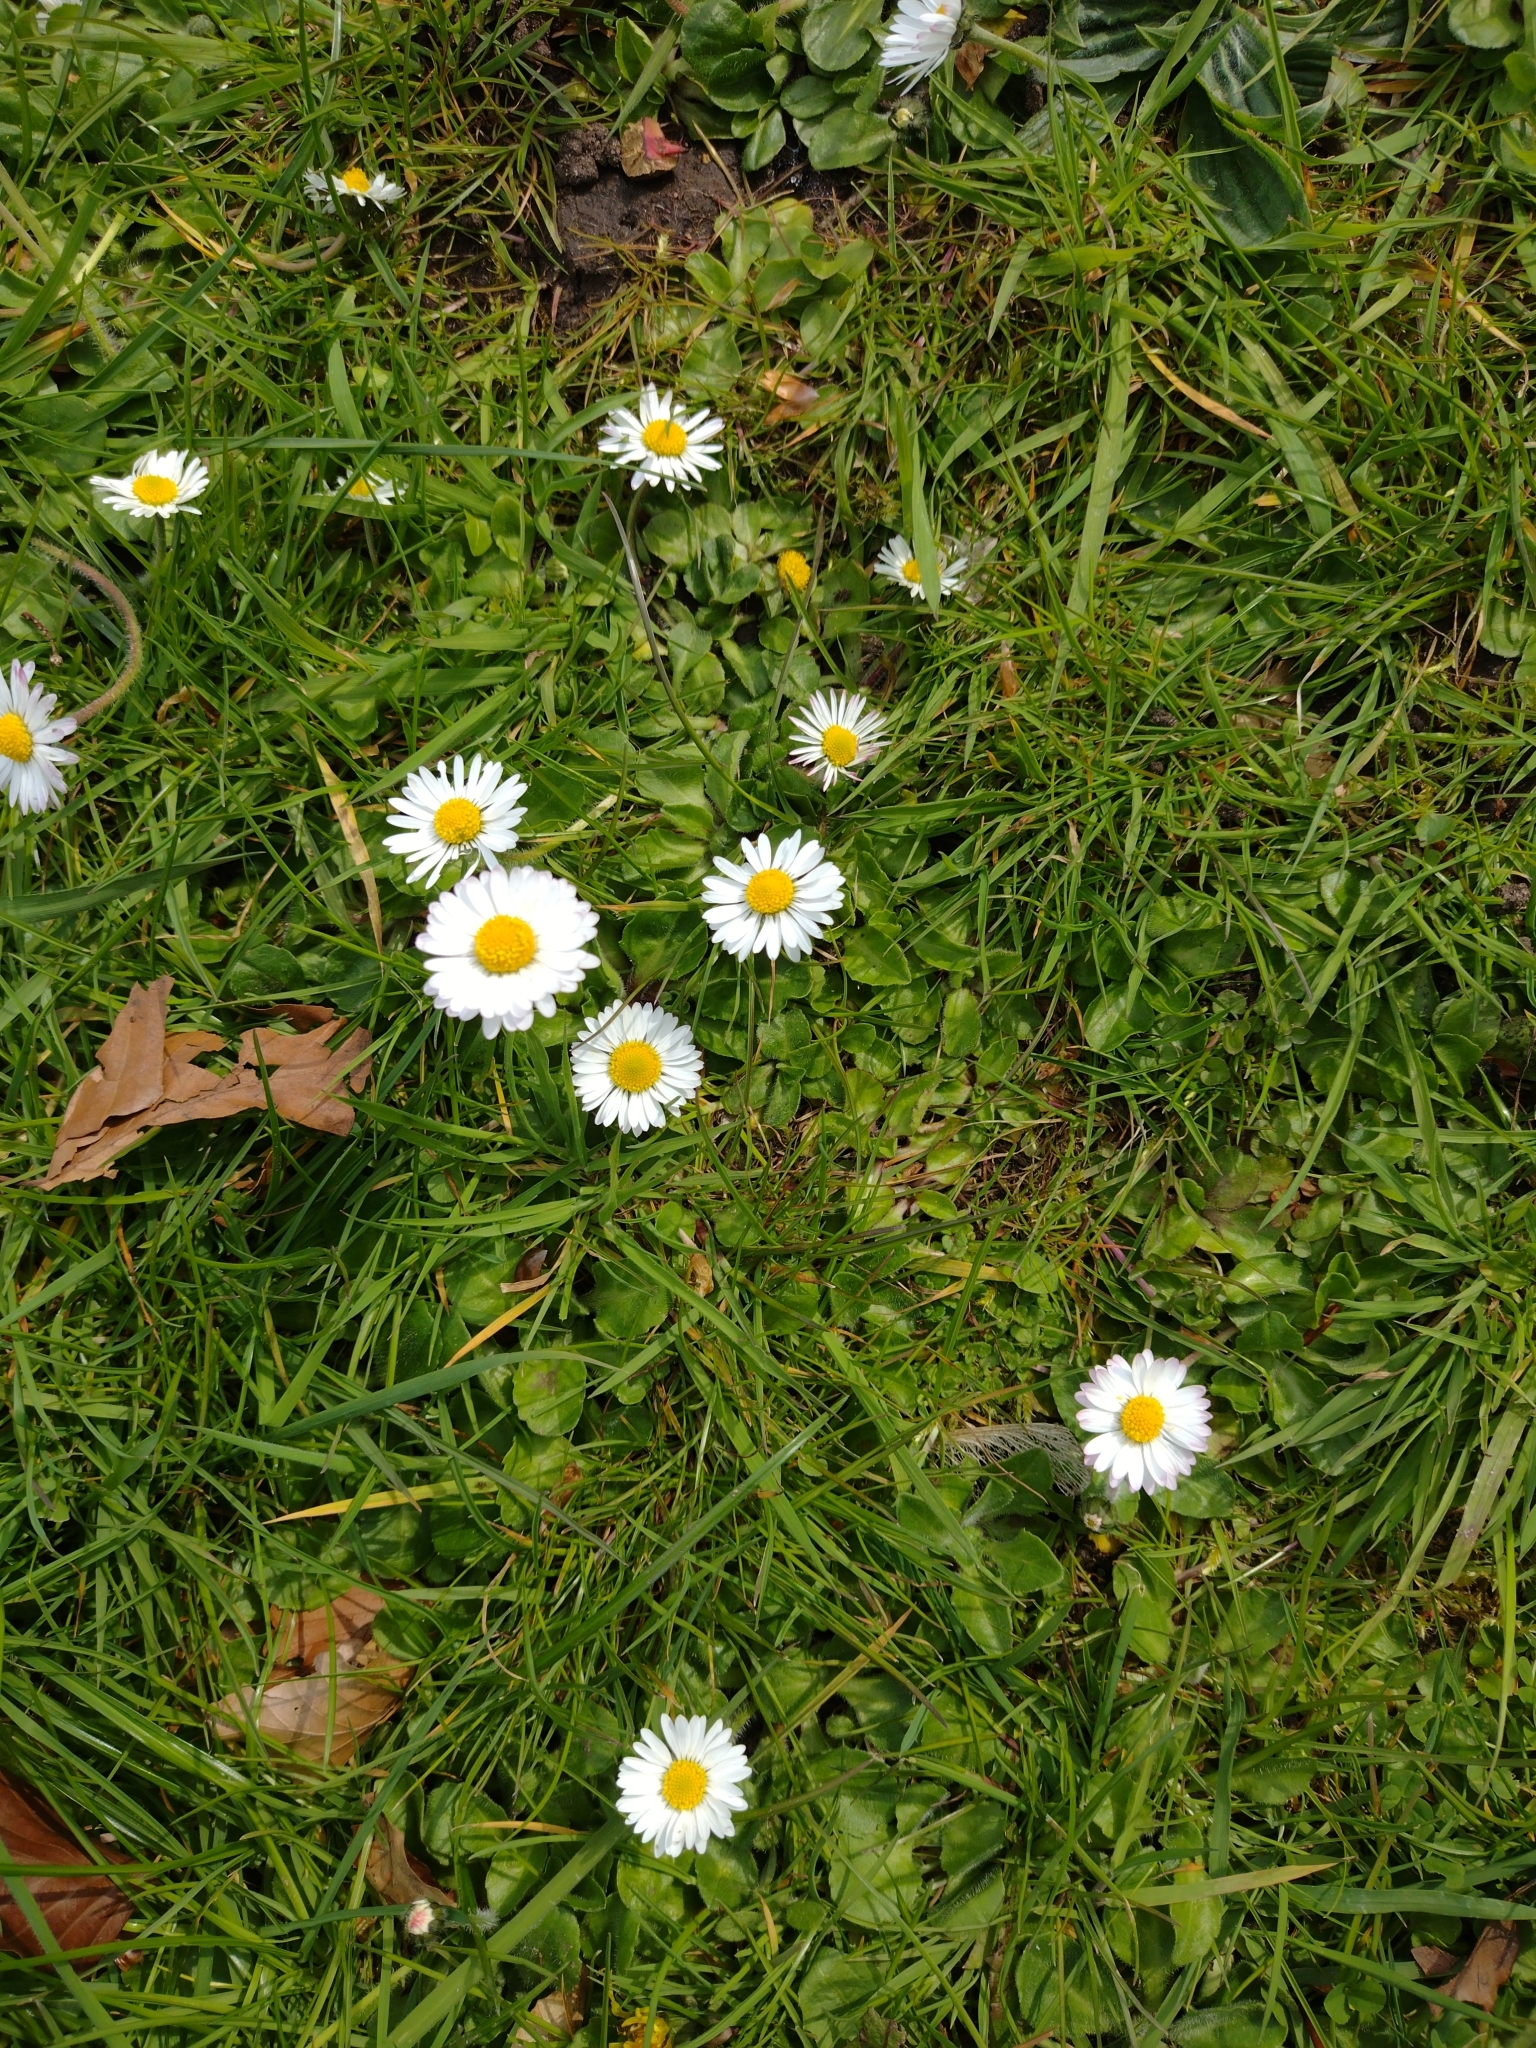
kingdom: Plantae
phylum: Tracheophyta
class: Magnoliopsida
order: Asterales
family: Asteraceae
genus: Bellis
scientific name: Bellis perennis
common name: Lawndaisy
